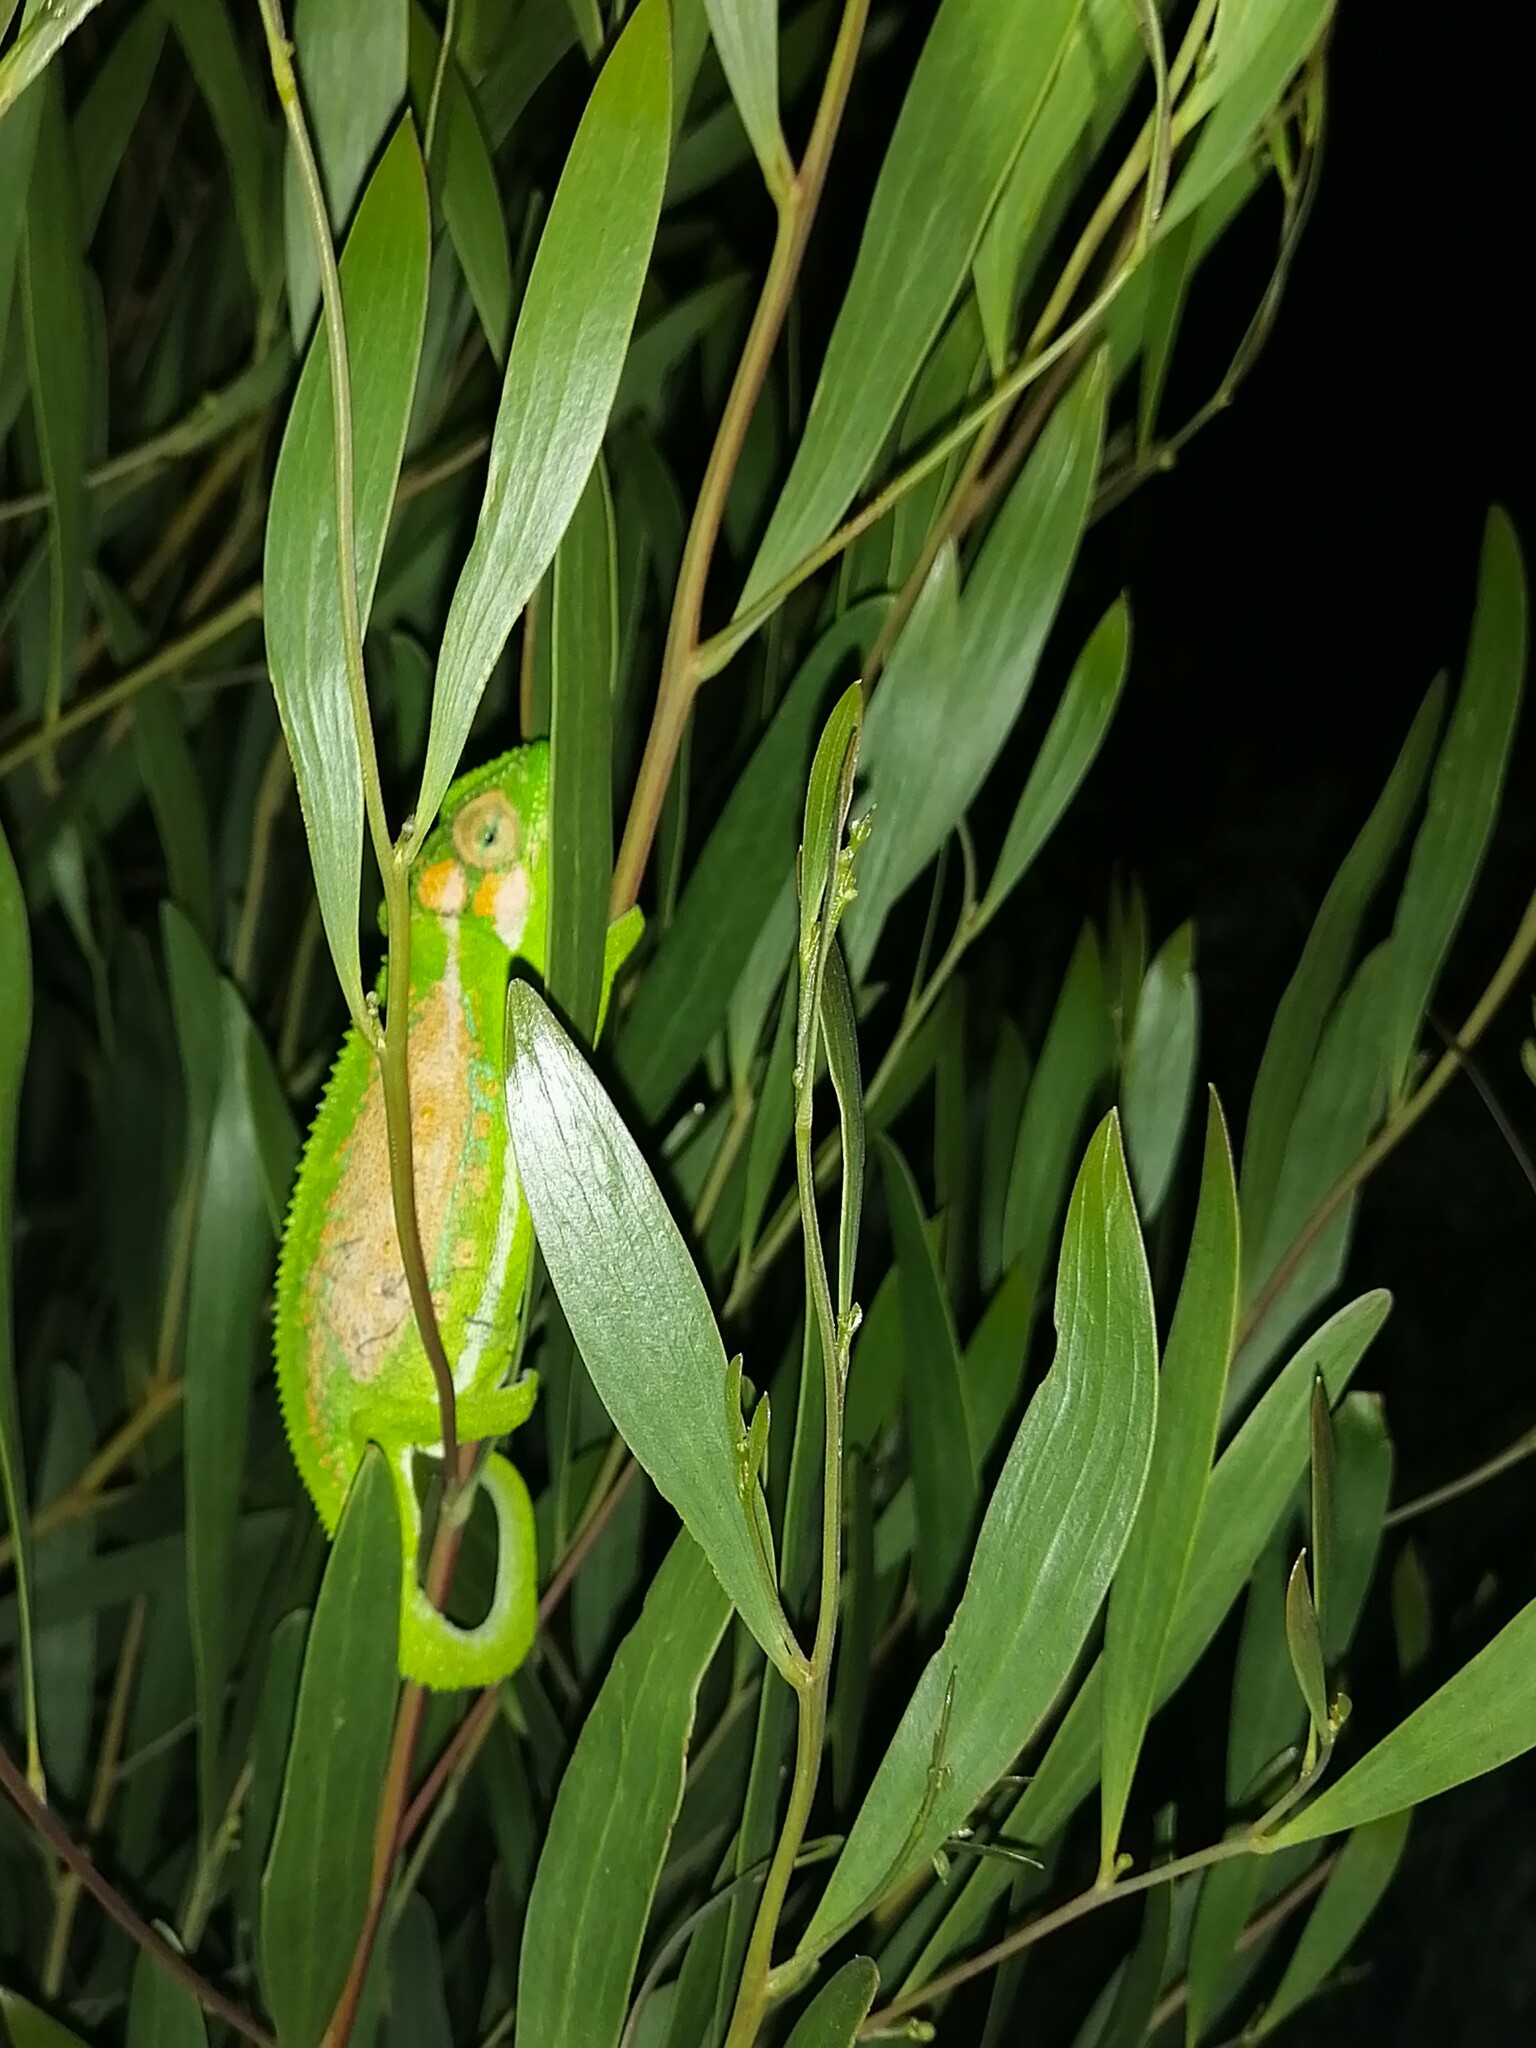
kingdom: Animalia
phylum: Chordata
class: Squamata
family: Chamaeleonidae
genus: Bradypodion
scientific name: Bradypodion pumilum
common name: Cape dwarf chameleon
